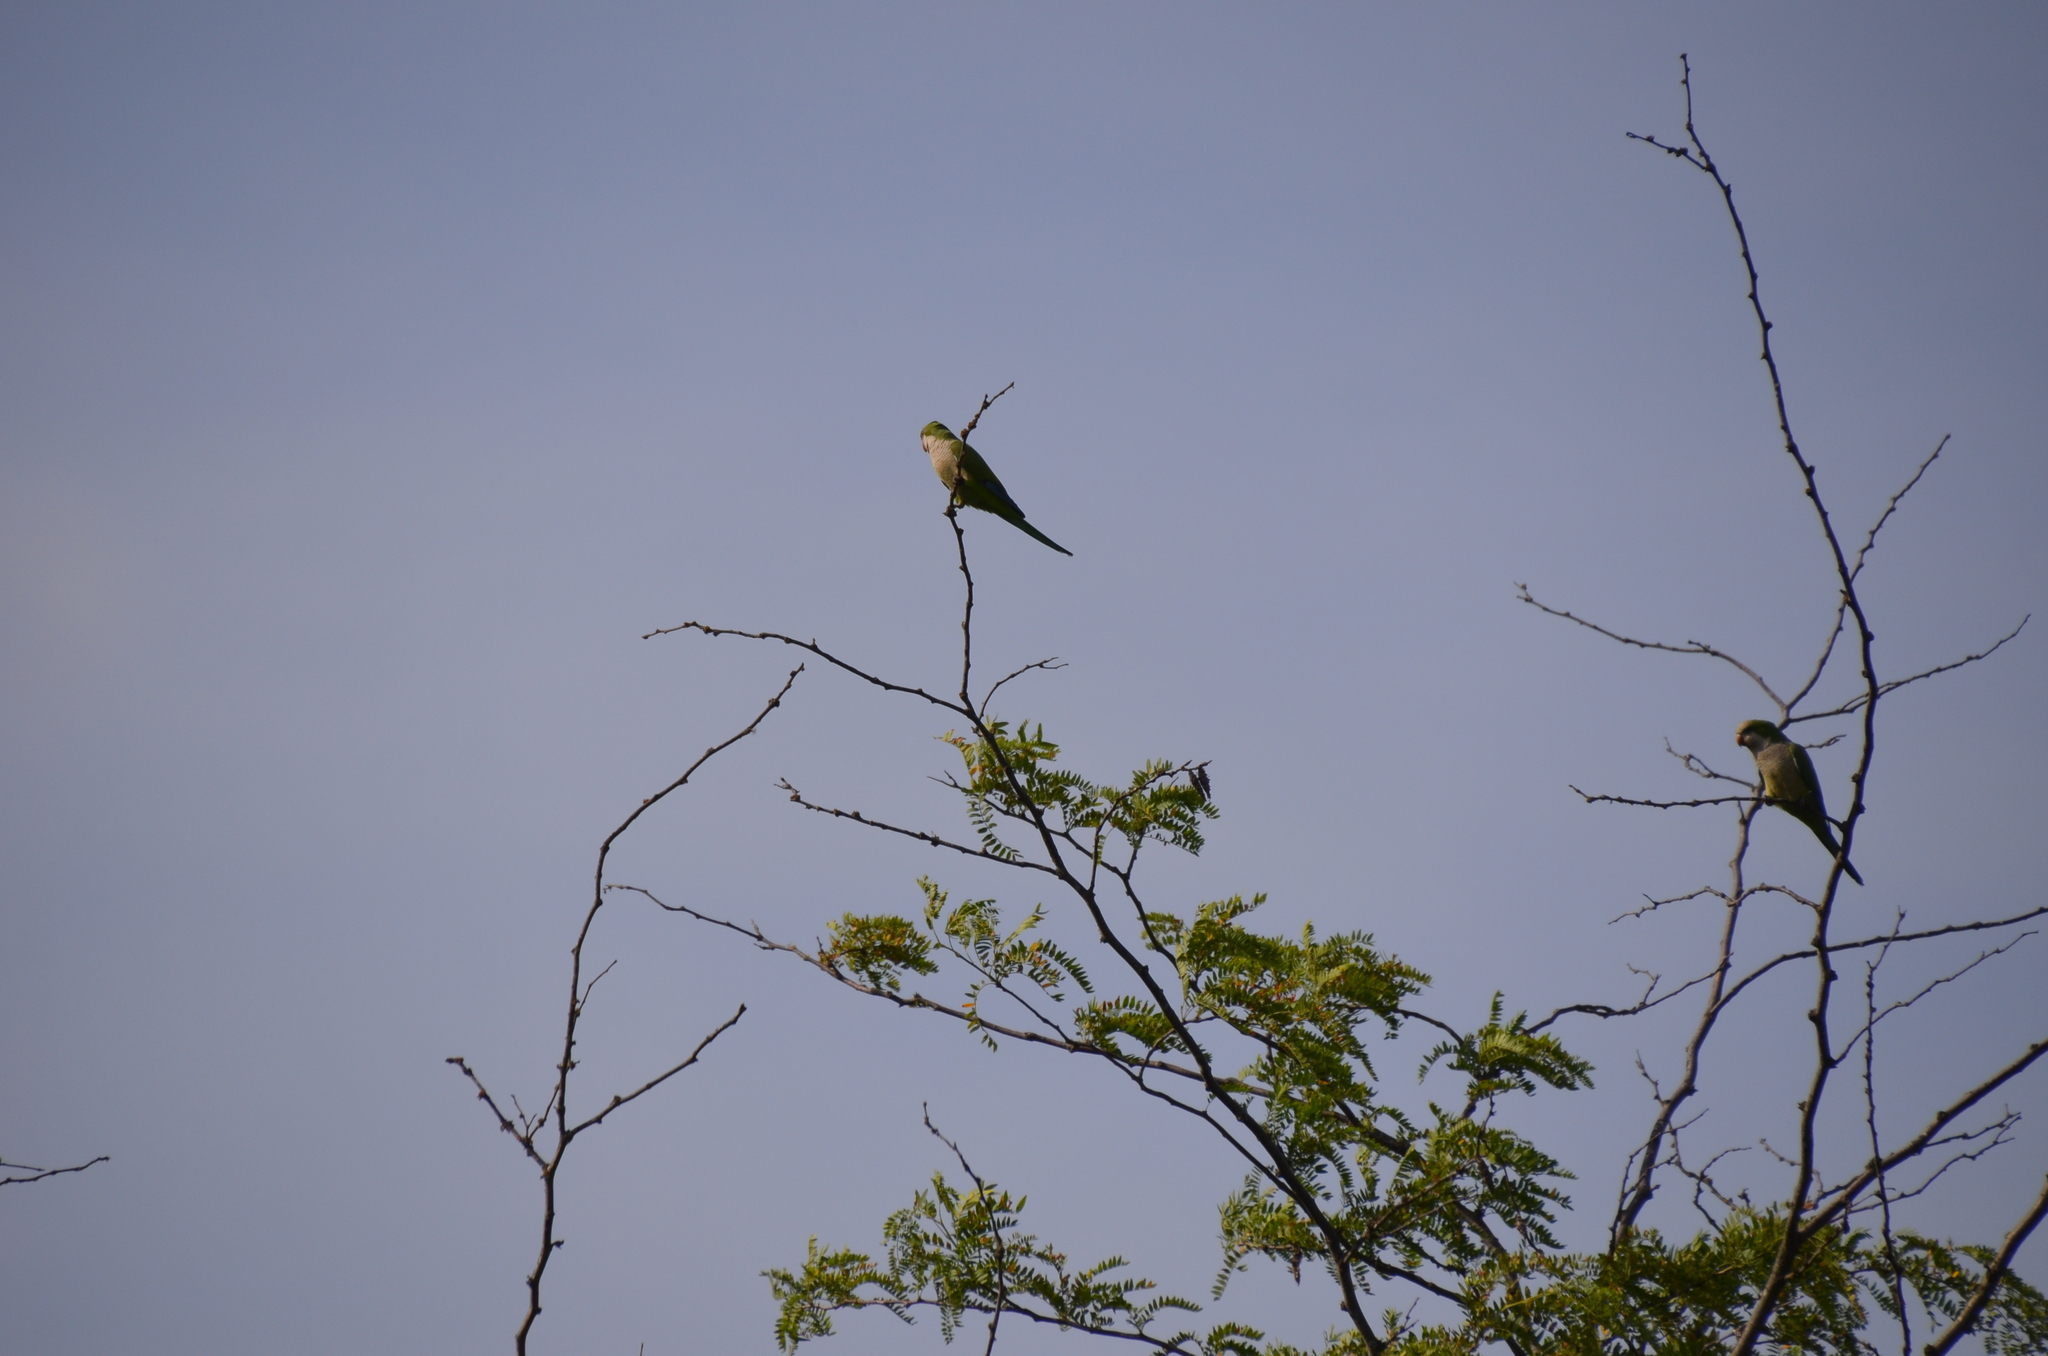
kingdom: Animalia
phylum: Chordata
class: Aves
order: Psittaciformes
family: Psittacidae
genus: Myiopsitta
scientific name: Myiopsitta monachus
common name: Monk parakeet
